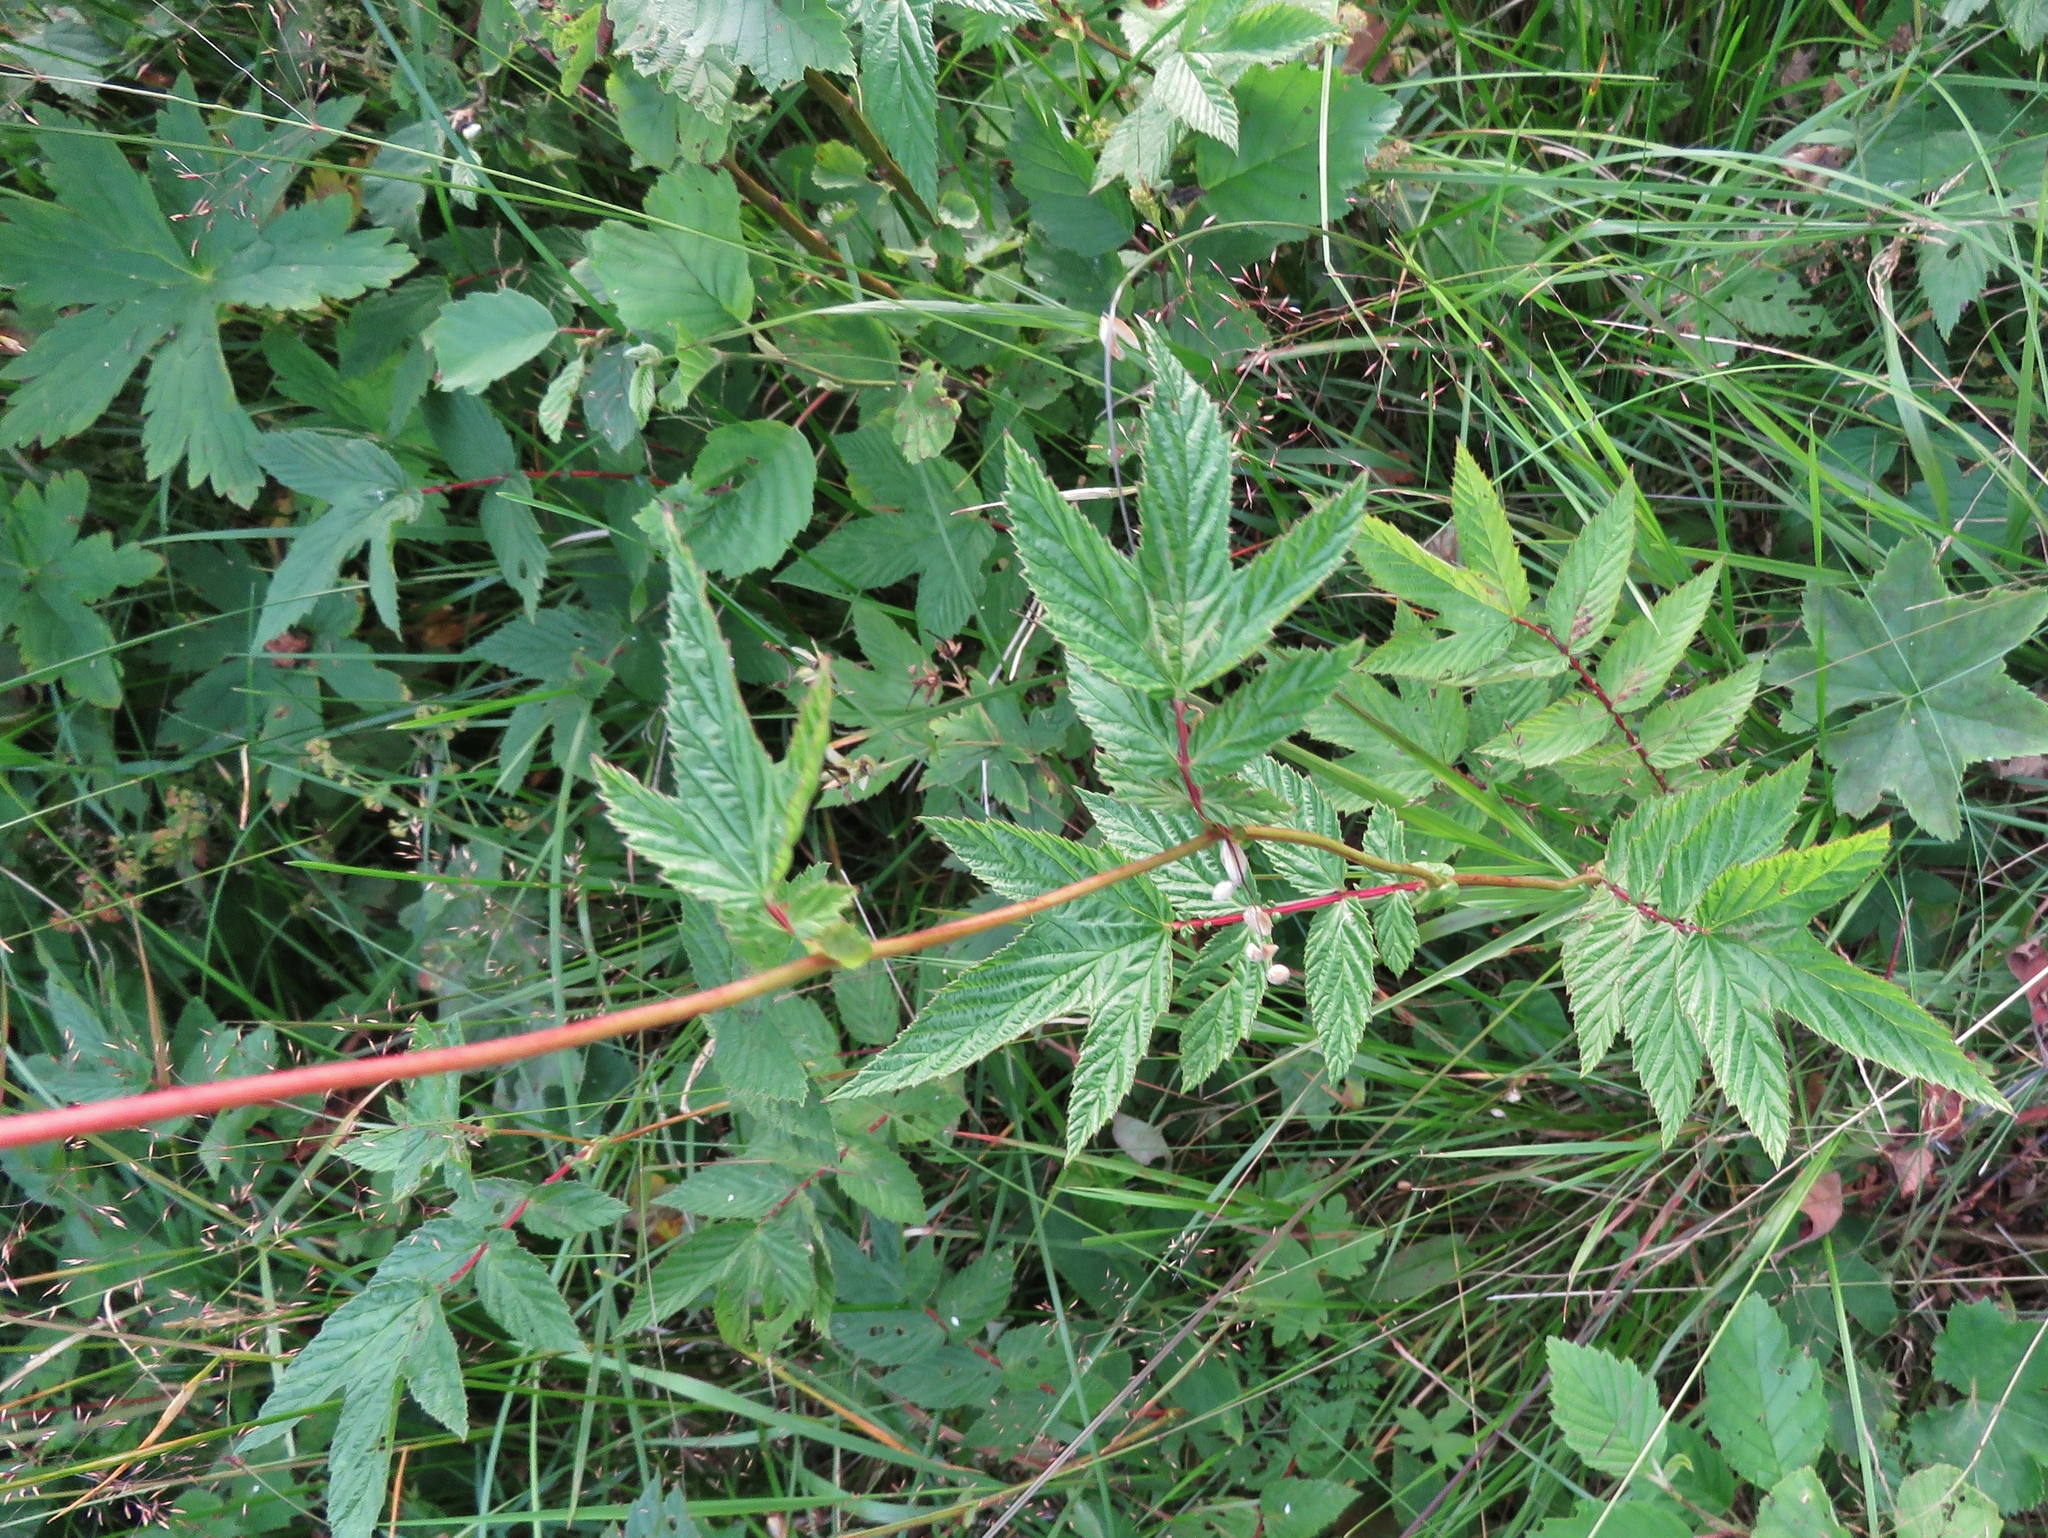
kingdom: Plantae
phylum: Tracheophyta
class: Magnoliopsida
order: Rosales
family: Rosaceae
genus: Filipendula
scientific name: Filipendula ulmaria
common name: Meadowsweet
